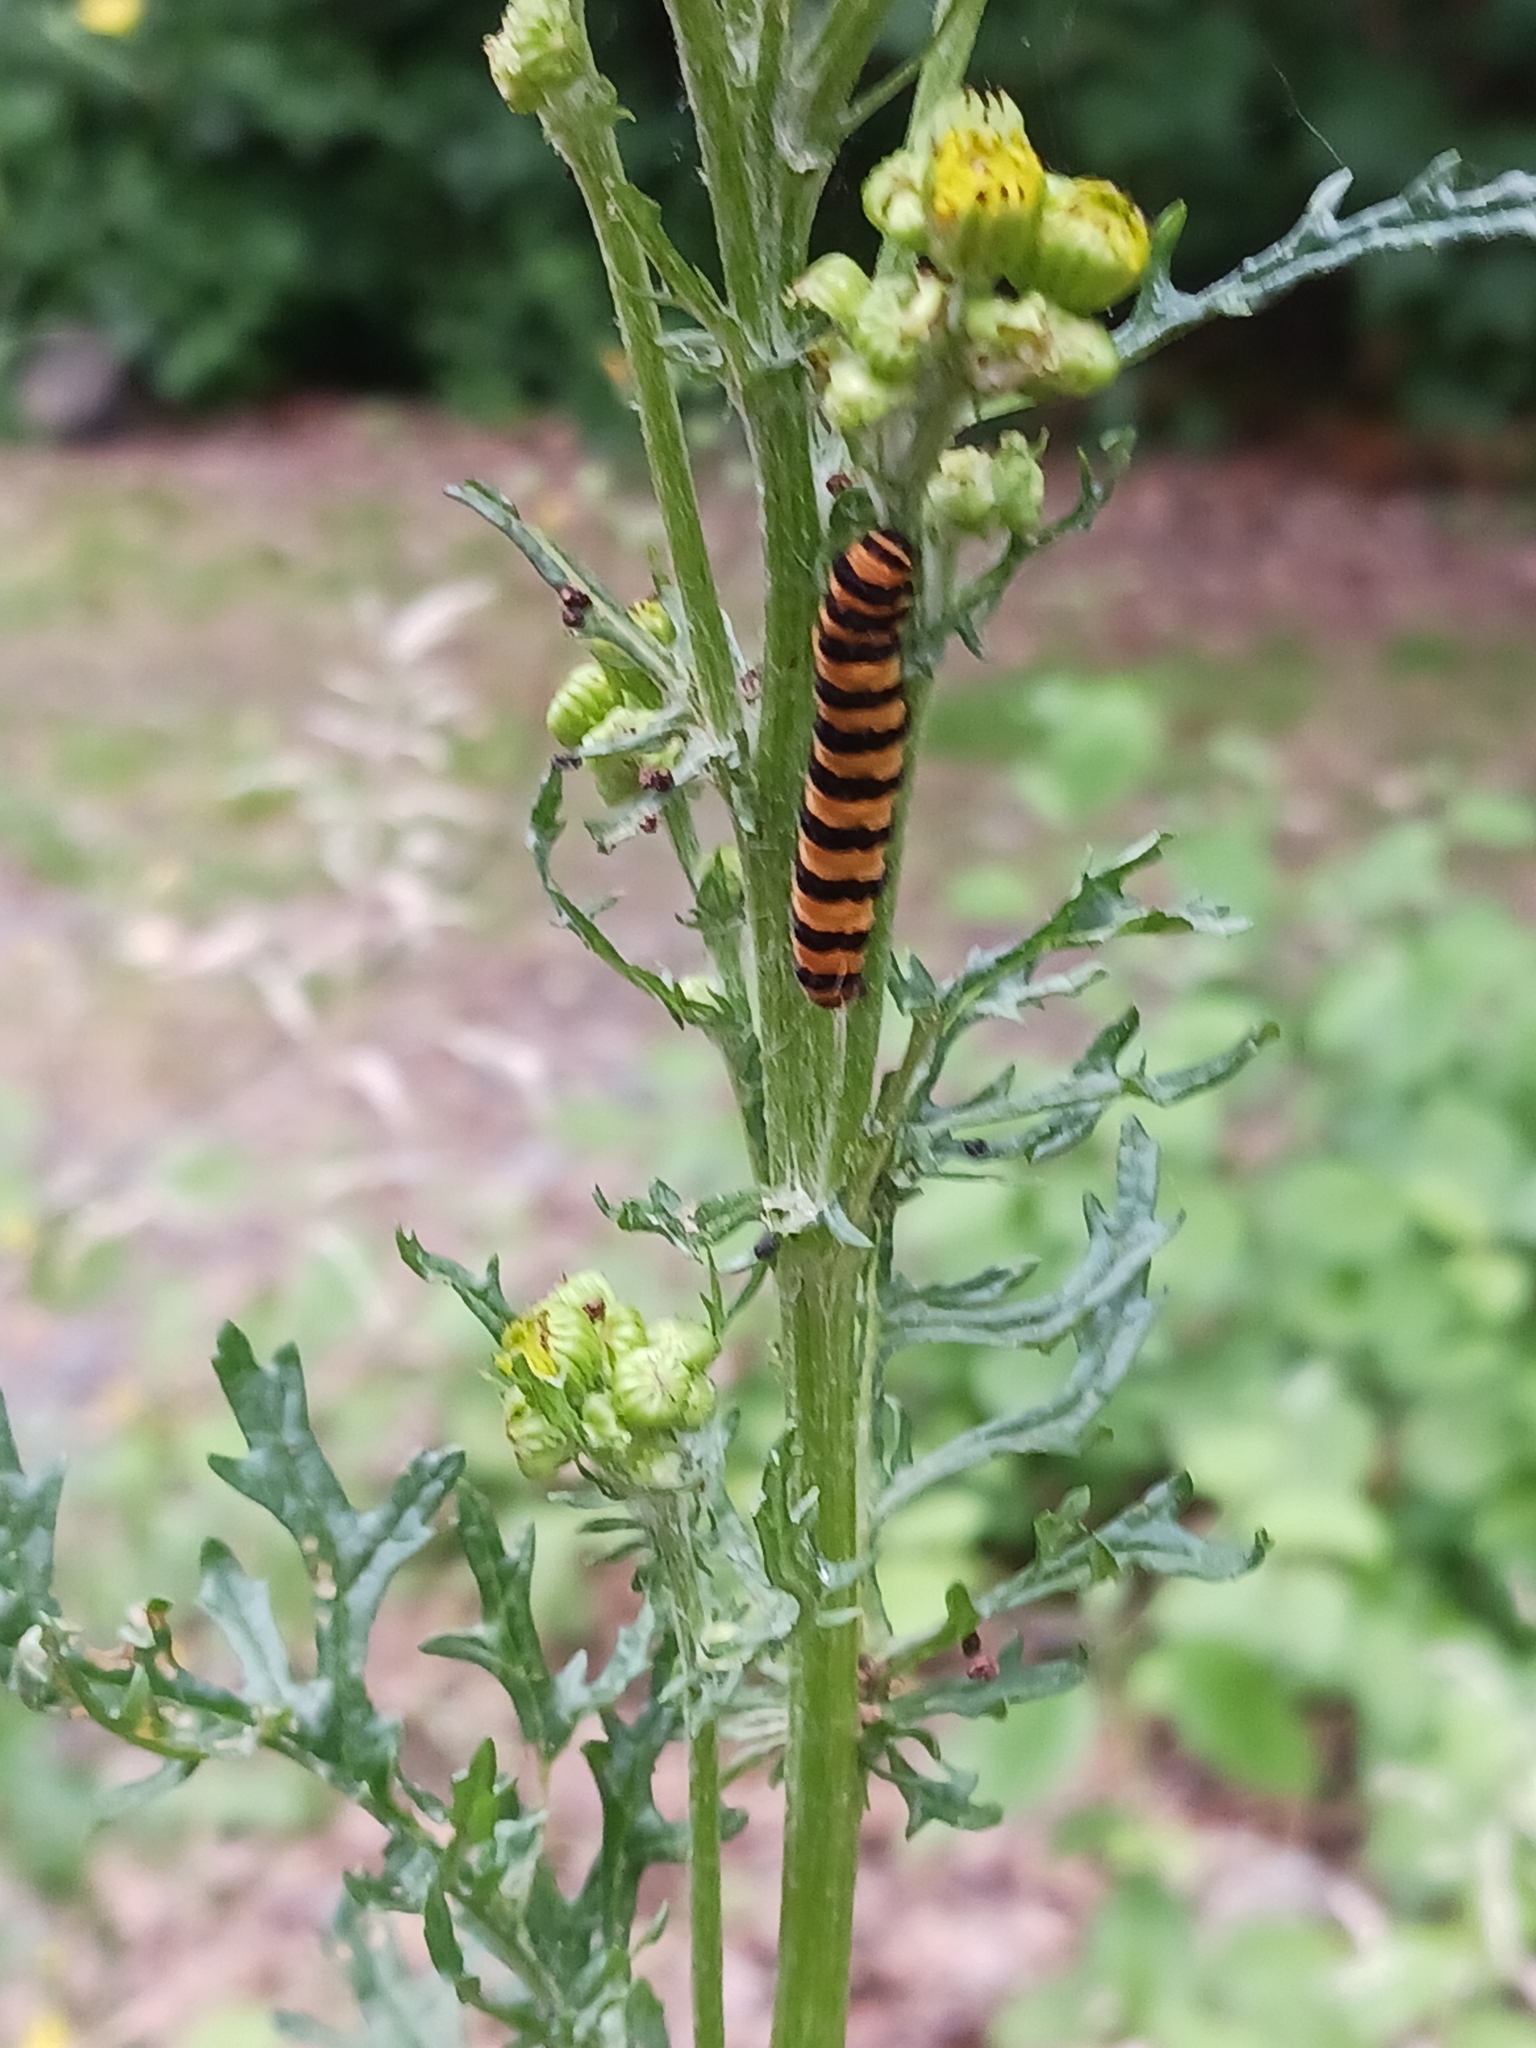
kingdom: Animalia
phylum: Arthropoda
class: Insecta
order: Lepidoptera
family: Erebidae
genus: Tyria
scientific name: Tyria jacobaeae
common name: Cinnabar
